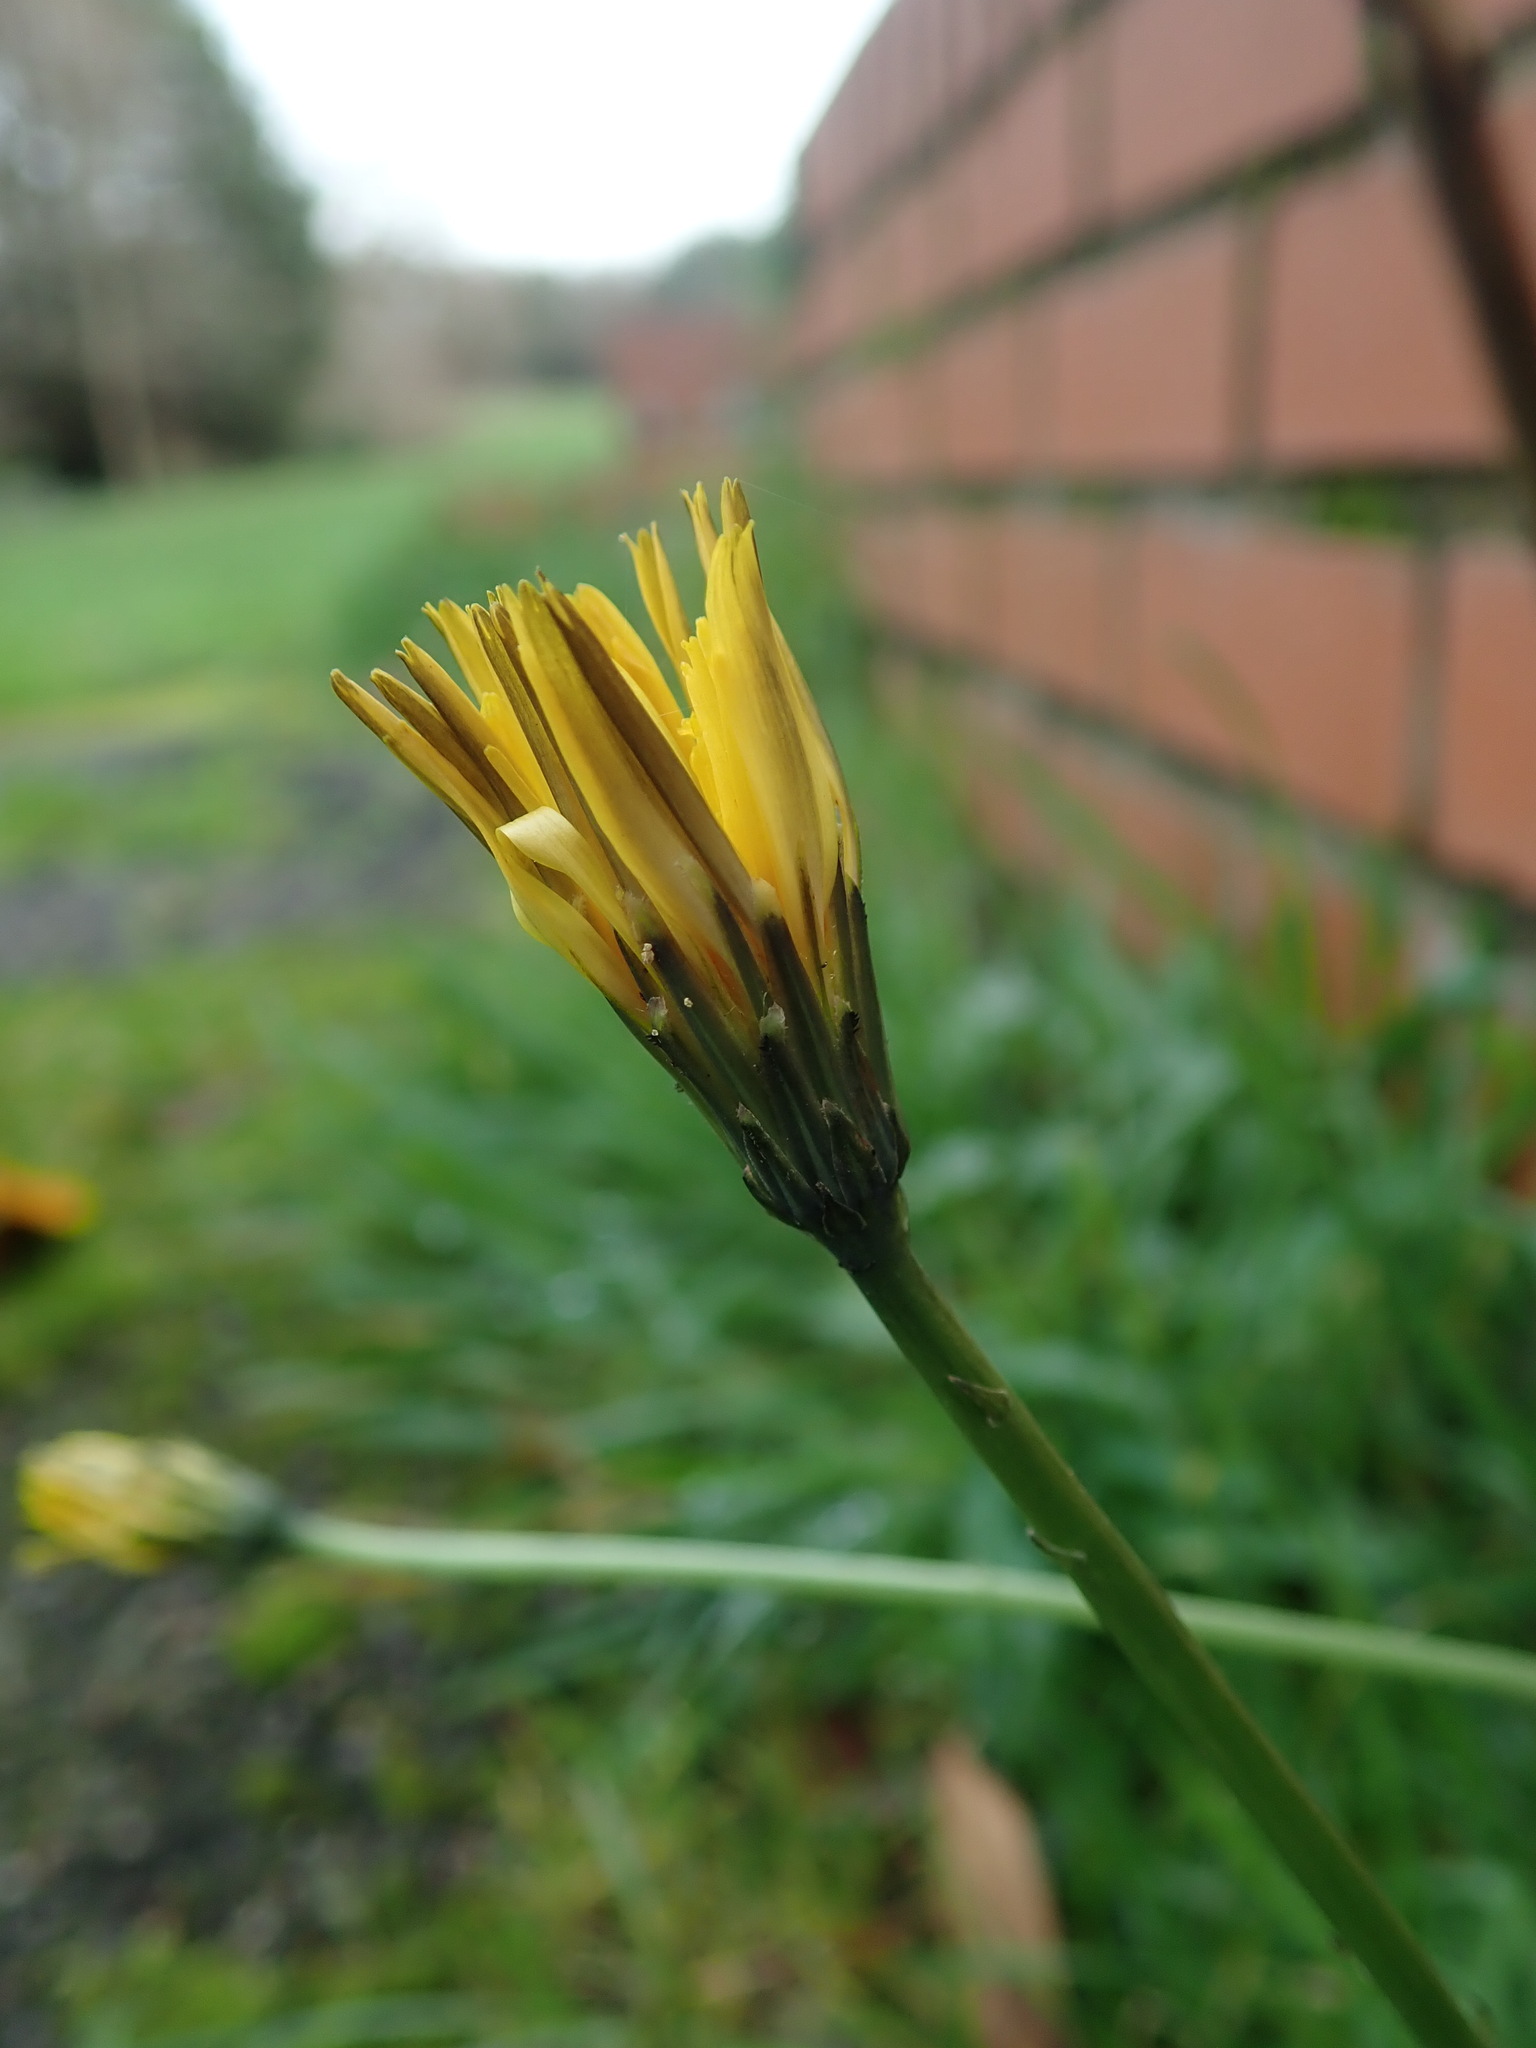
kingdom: Plantae
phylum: Tracheophyta
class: Magnoliopsida
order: Asterales
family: Asteraceae
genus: Hypochaeris
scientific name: Hypochaeris radicata
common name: Flatweed
